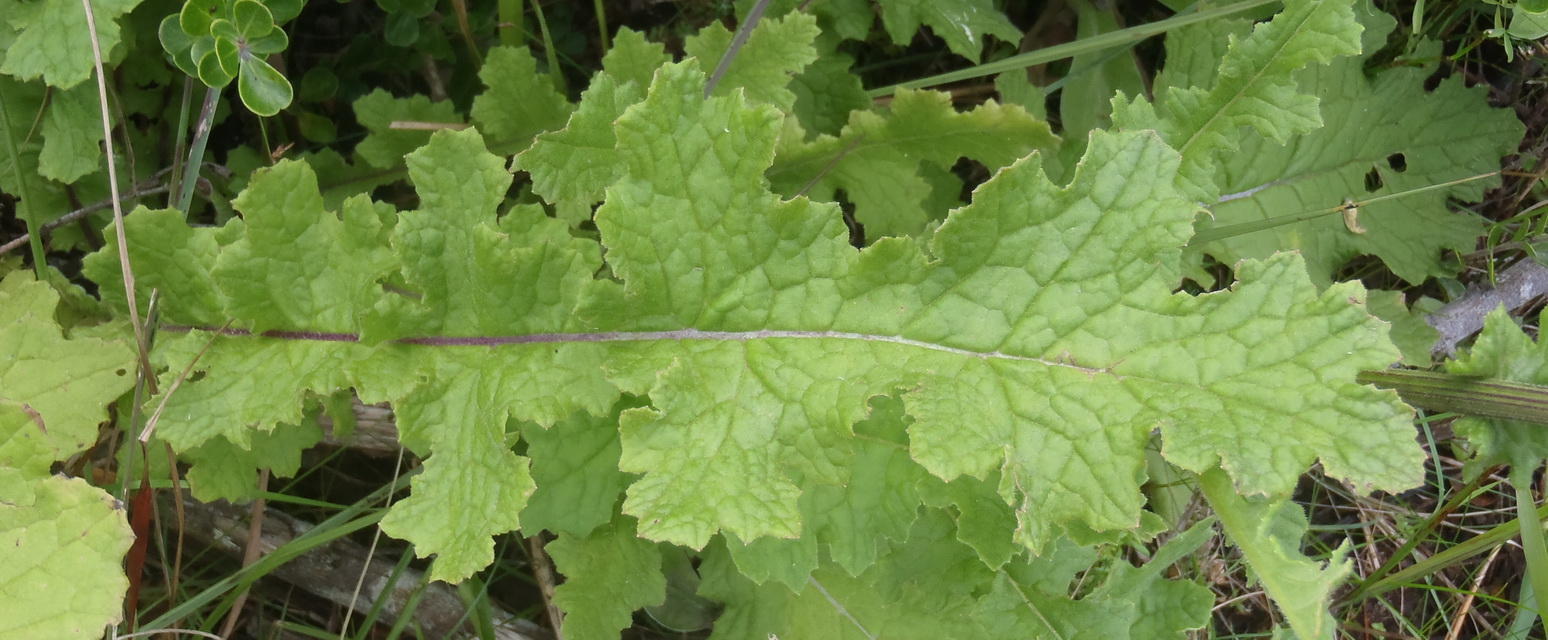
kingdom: Plantae
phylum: Tracheophyta
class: Magnoliopsida
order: Asterales
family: Asteraceae
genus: Senecio
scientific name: Senecio purpureus
